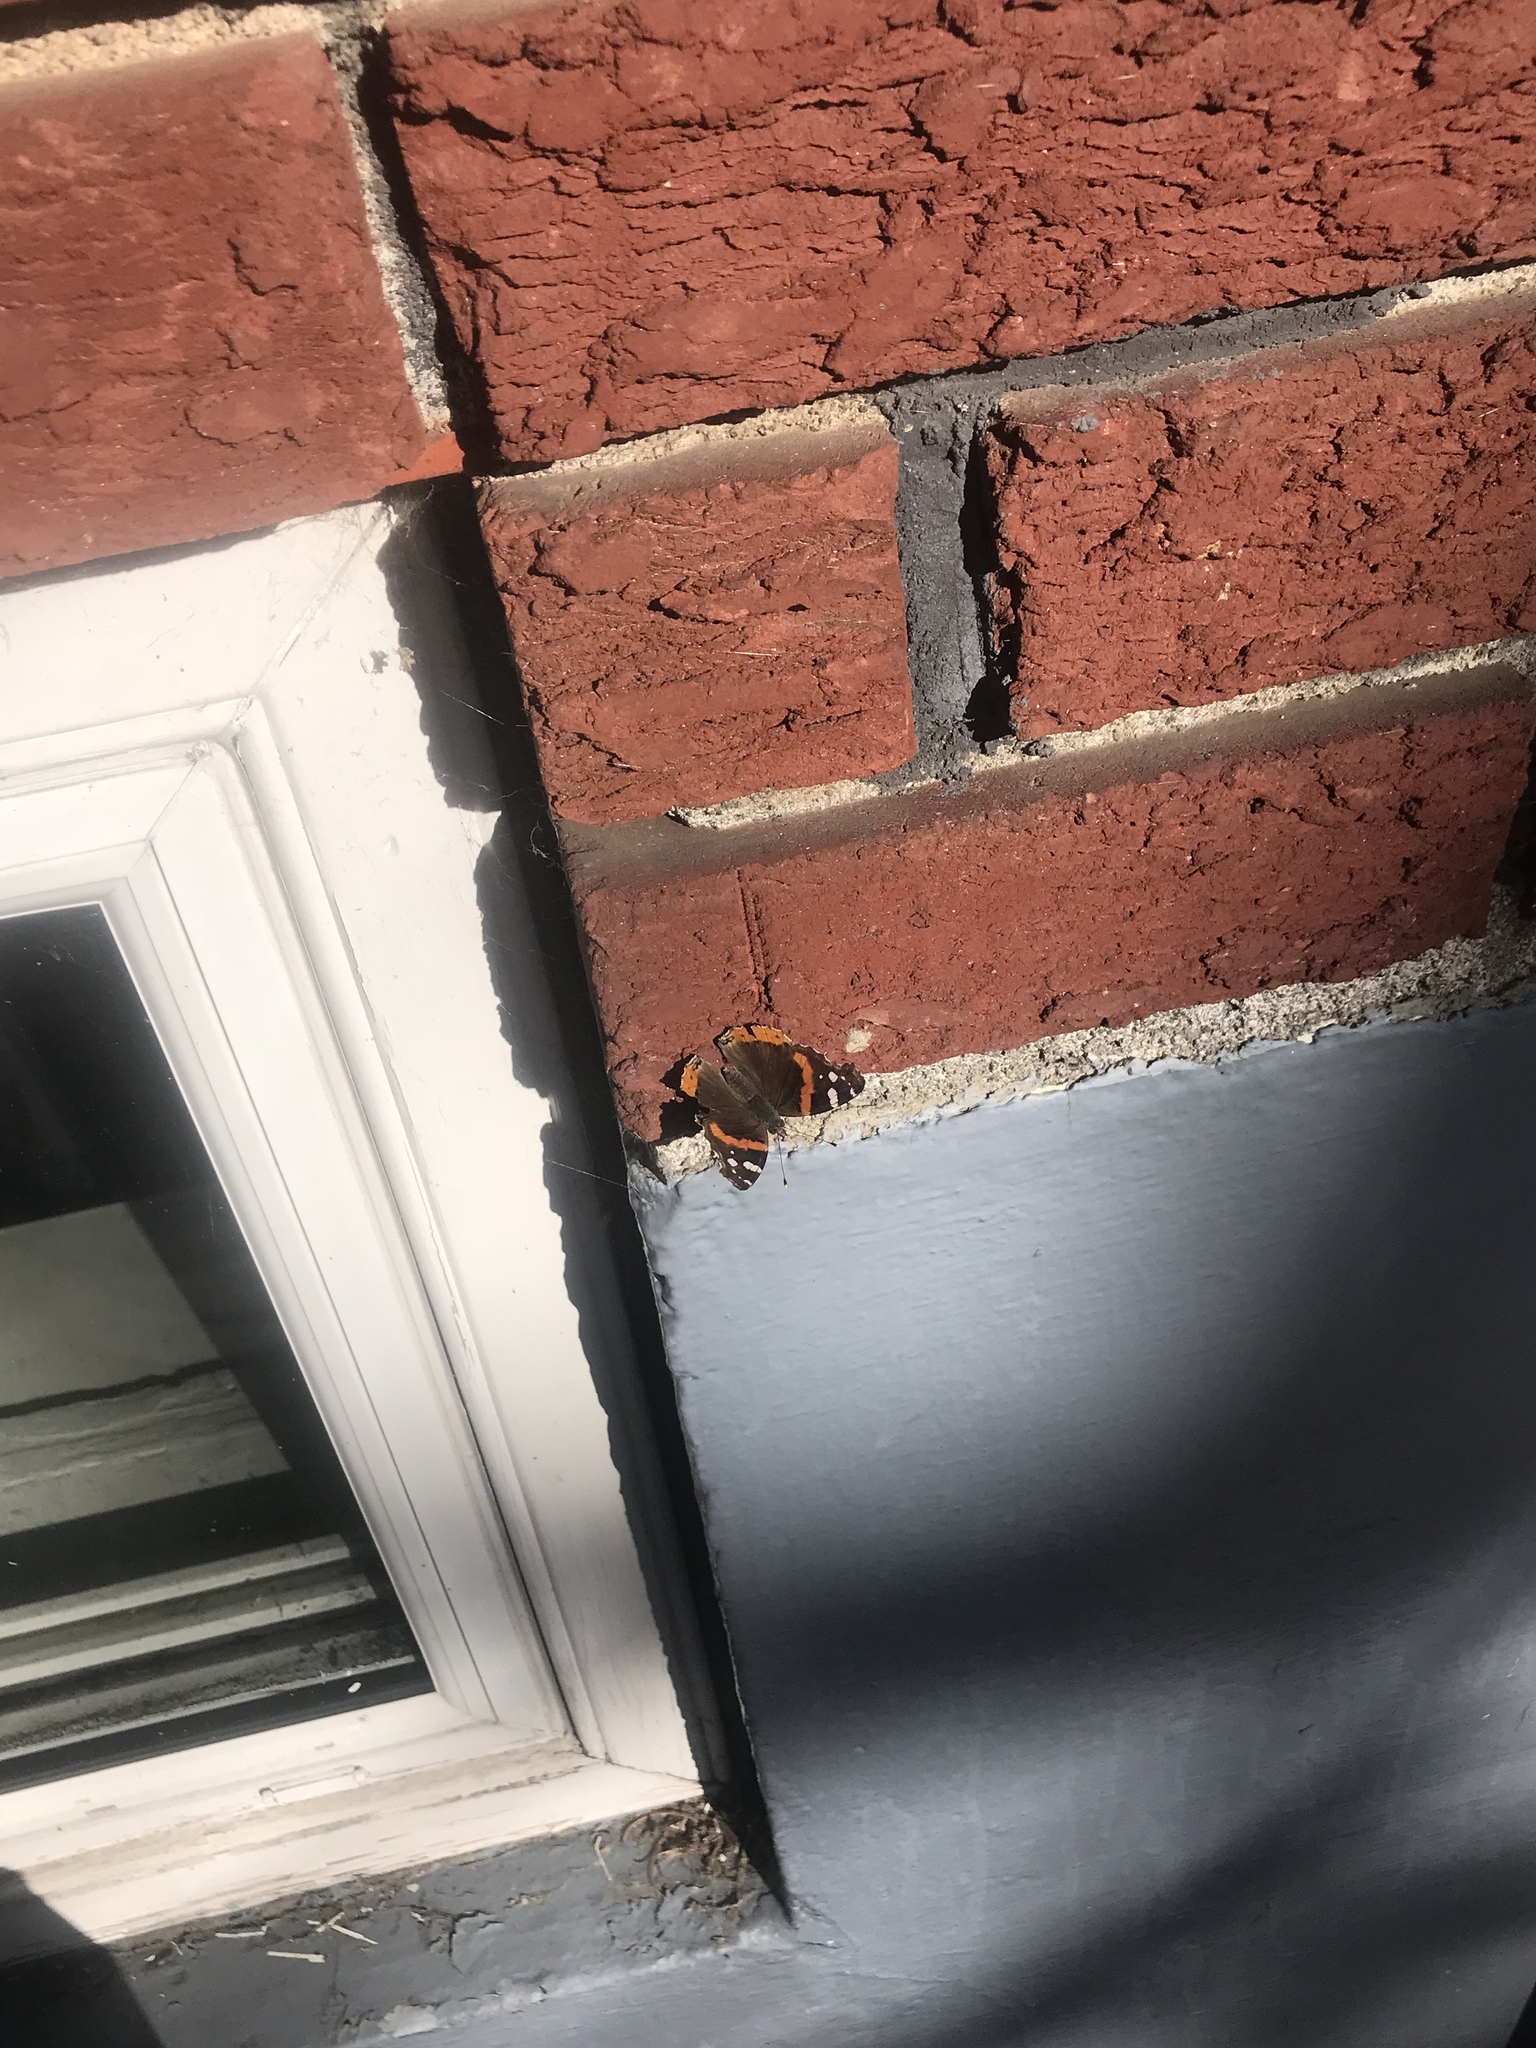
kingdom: Animalia
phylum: Arthropoda
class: Insecta
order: Lepidoptera
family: Nymphalidae
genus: Vanessa
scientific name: Vanessa atalanta
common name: Red admiral
